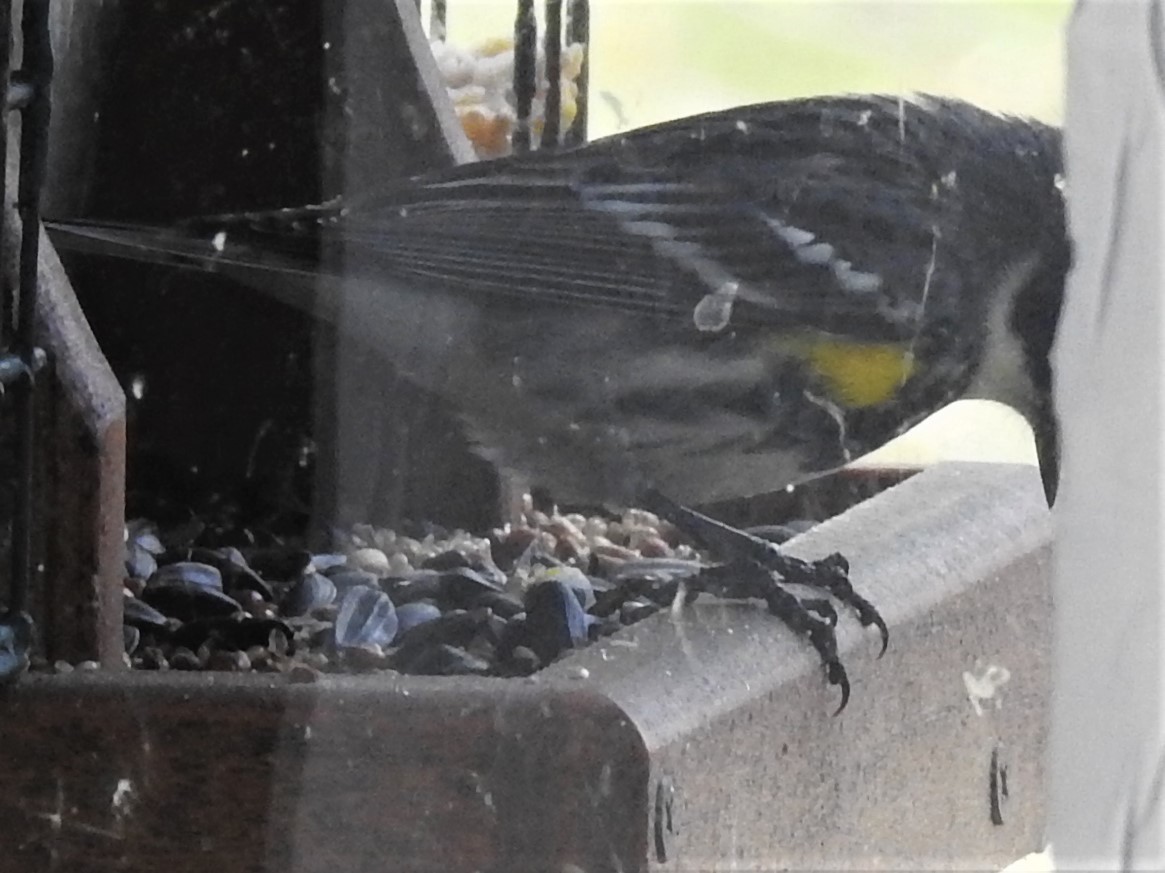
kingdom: Animalia
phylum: Chordata
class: Aves
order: Passeriformes
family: Parulidae
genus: Setophaga
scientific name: Setophaga coronata
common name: Myrtle warbler
